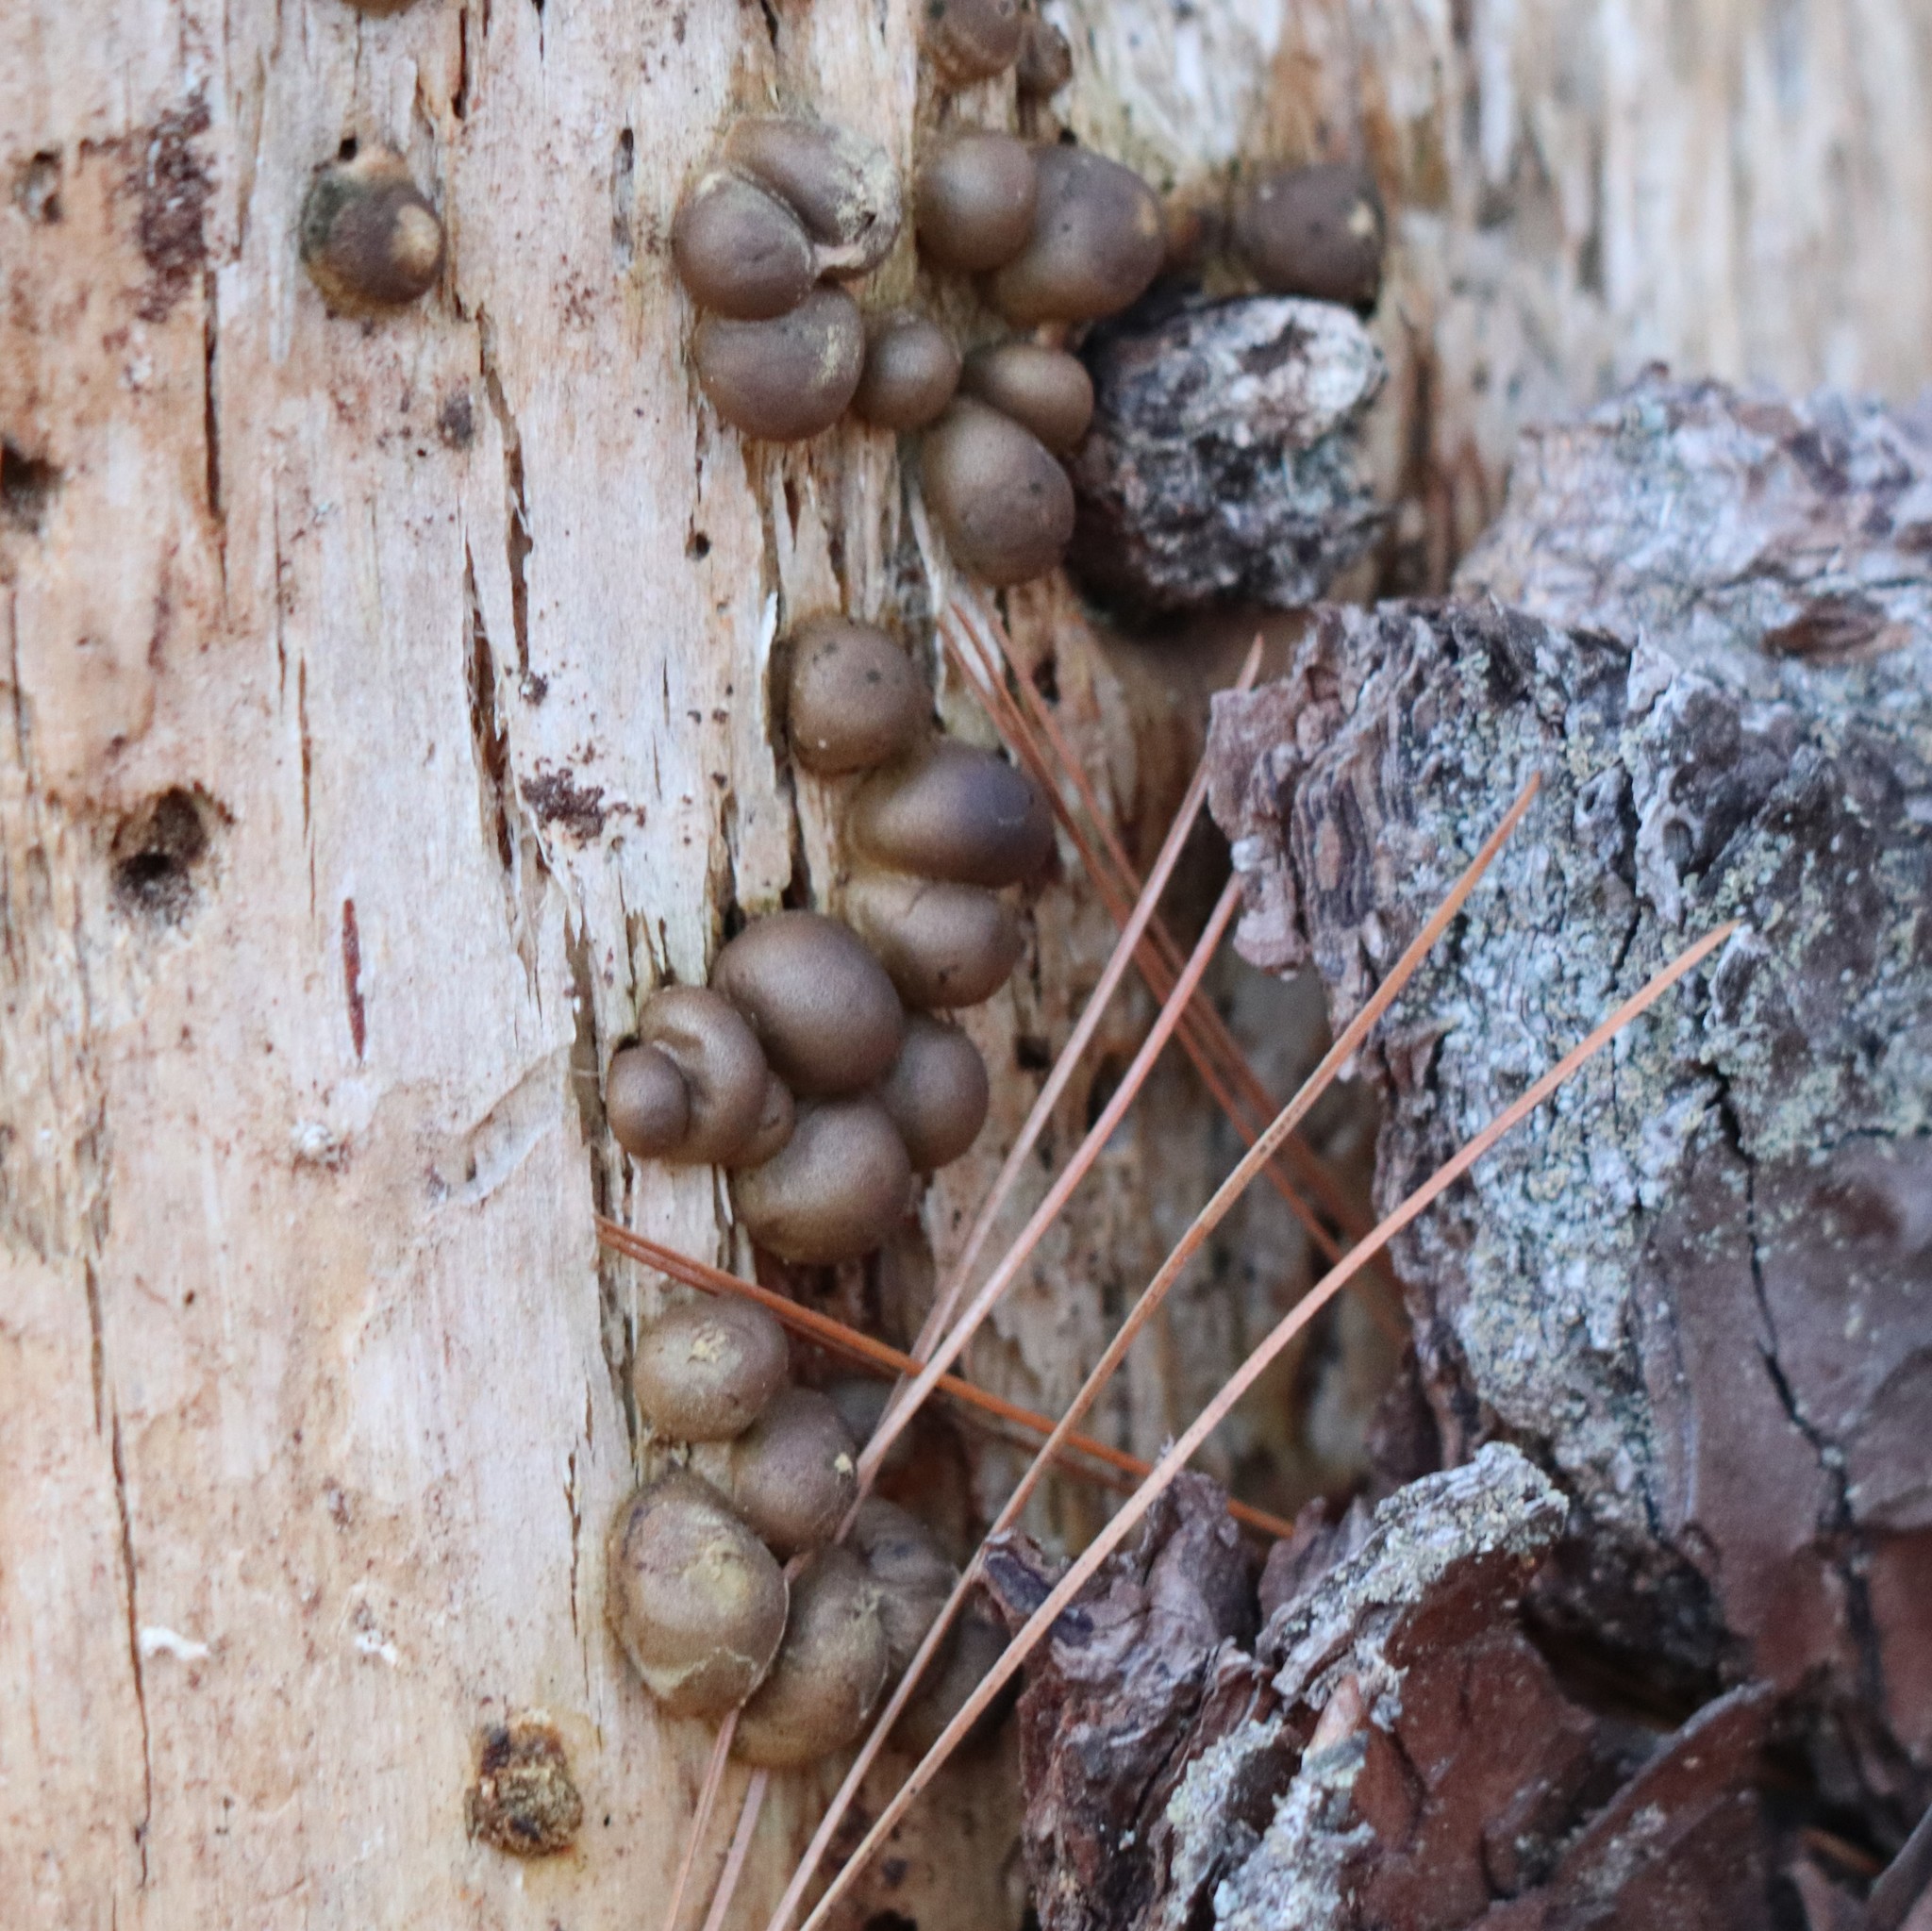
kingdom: Protozoa
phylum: Mycetozoa
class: Myxomycetes
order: Cribrariales
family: Tubiferaceae
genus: Lycogala
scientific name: Lycogala epidendrum
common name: Wolf's milk
